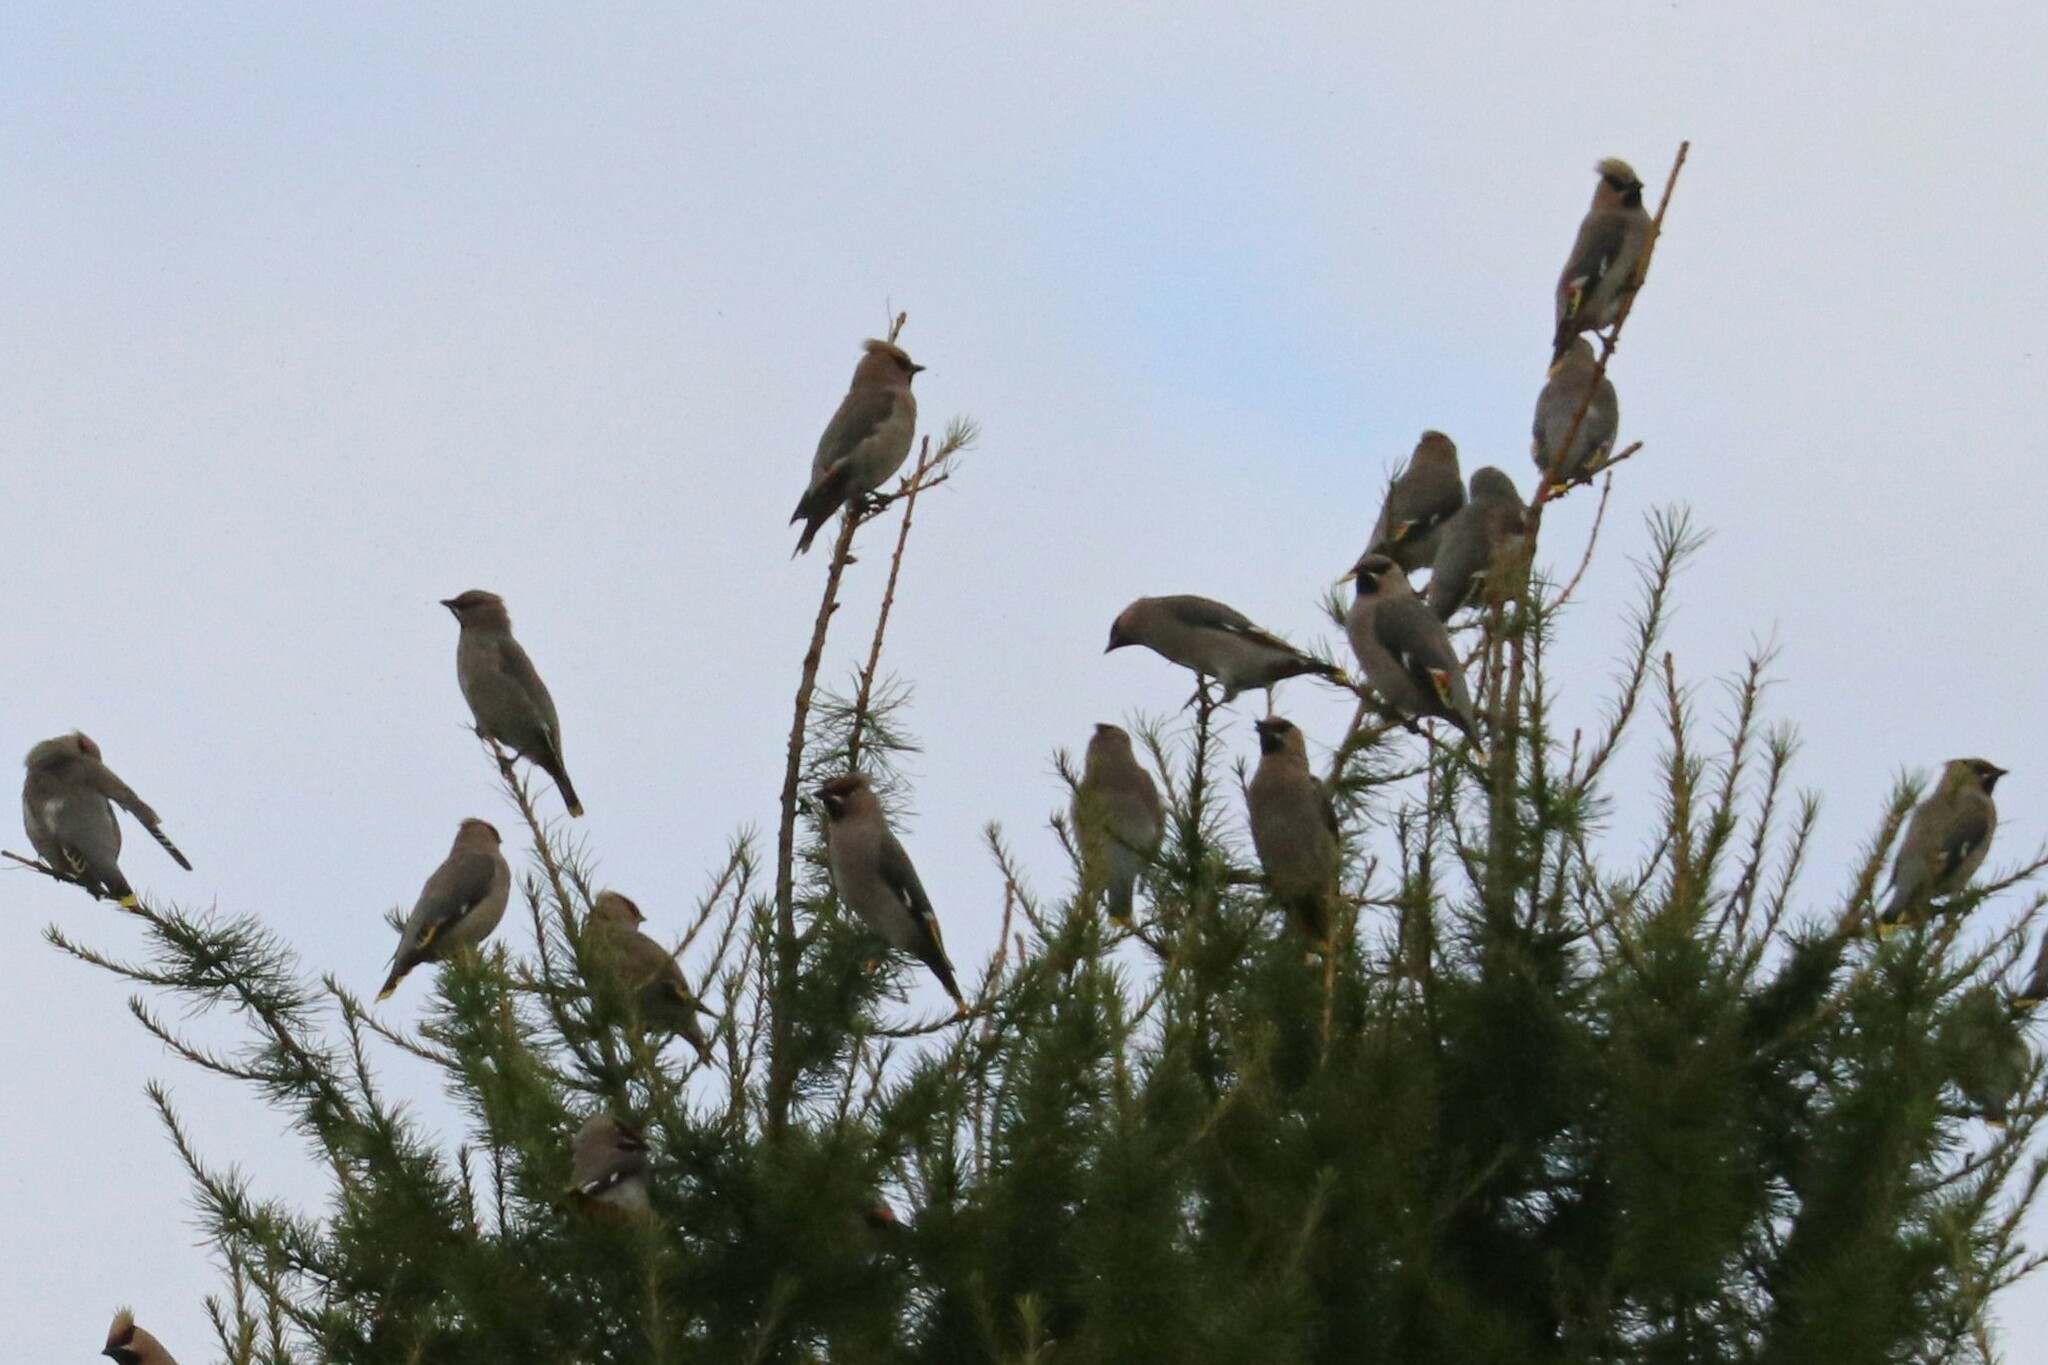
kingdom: Animalia
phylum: Chordata
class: Aves
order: Passeriformes
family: Bombycillidae
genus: Bombycilla
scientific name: Bombycilla garrulus
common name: Bohemian waxwing
